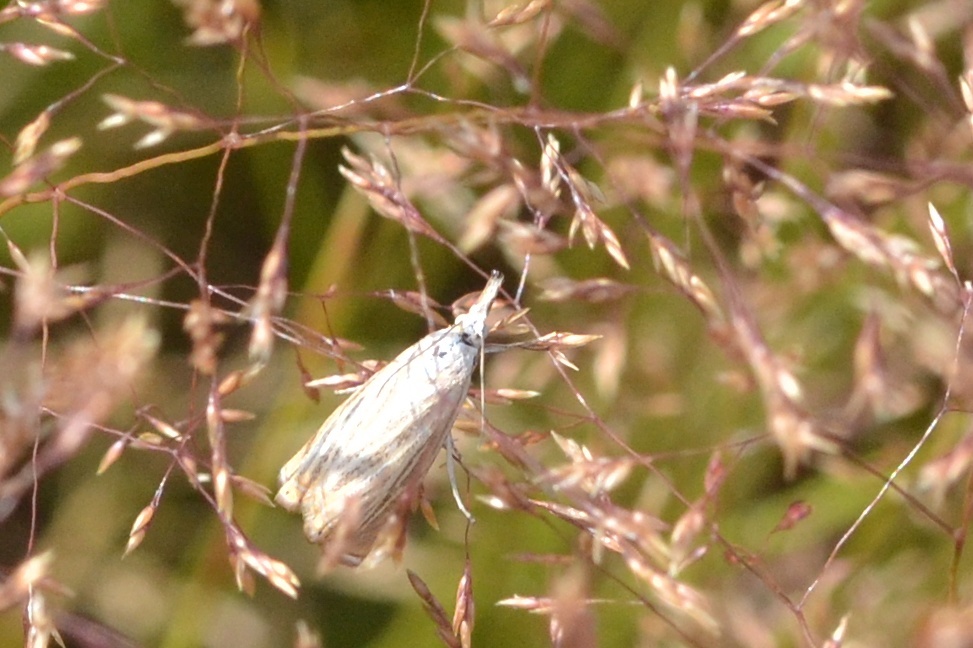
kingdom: Animalia
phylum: Arthropoda
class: Insecta
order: Lepidoptera
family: Crambidae
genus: Chrysoteuchia
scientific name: Chrysoteuchia culmella
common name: Garden grass-veneer
